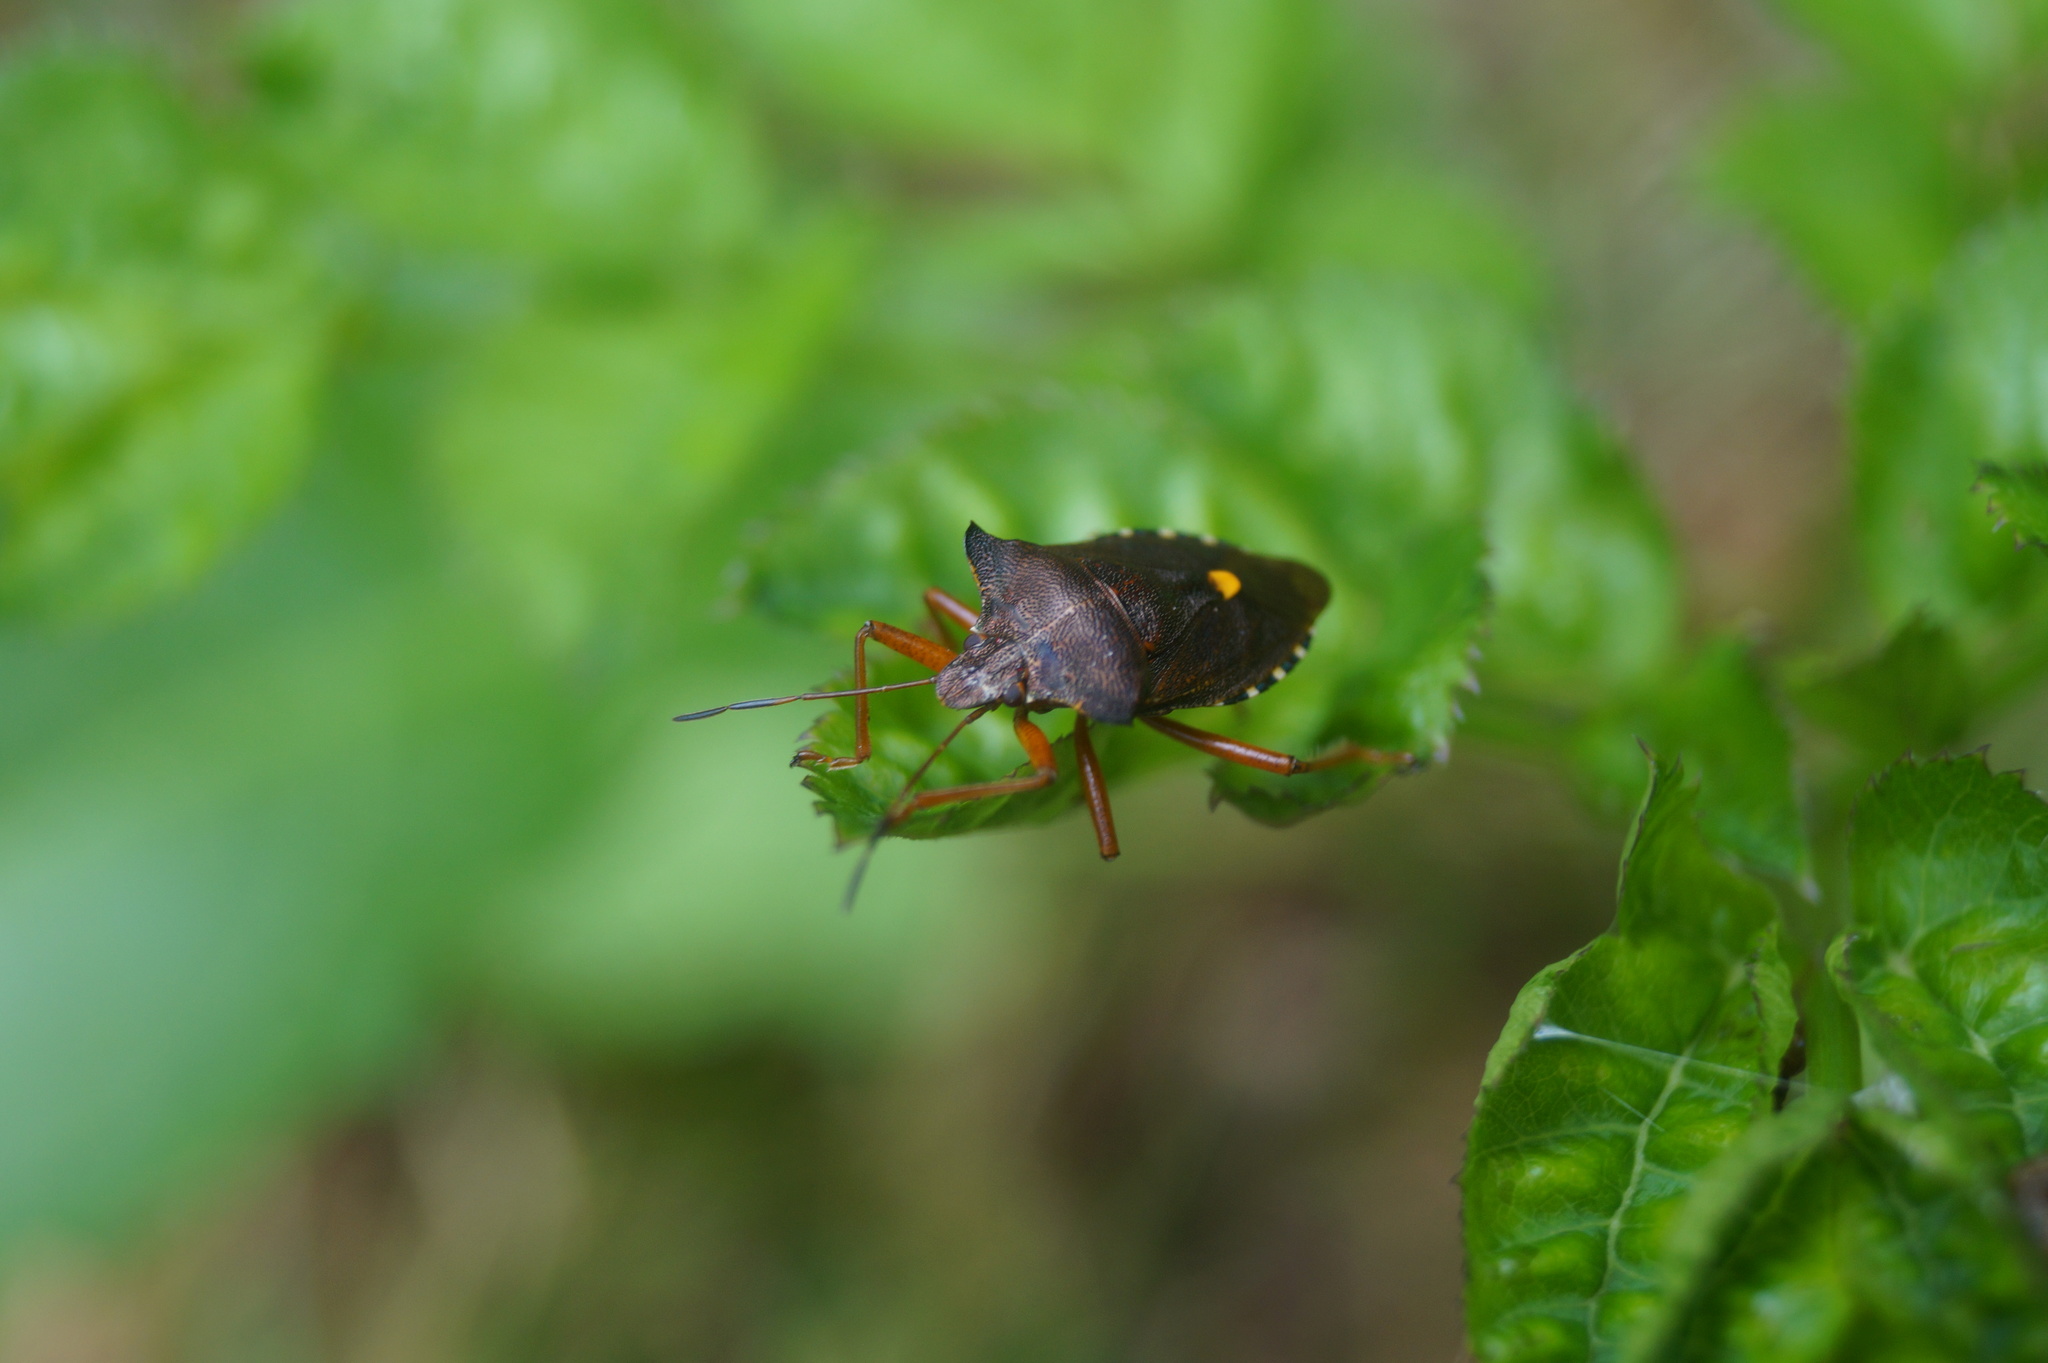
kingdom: Animalia
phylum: Arthropoda
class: Insecta
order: Hemiptera
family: Pentatomidae
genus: Pentatoma
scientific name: Pentatoma rufipes
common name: Forest bug
